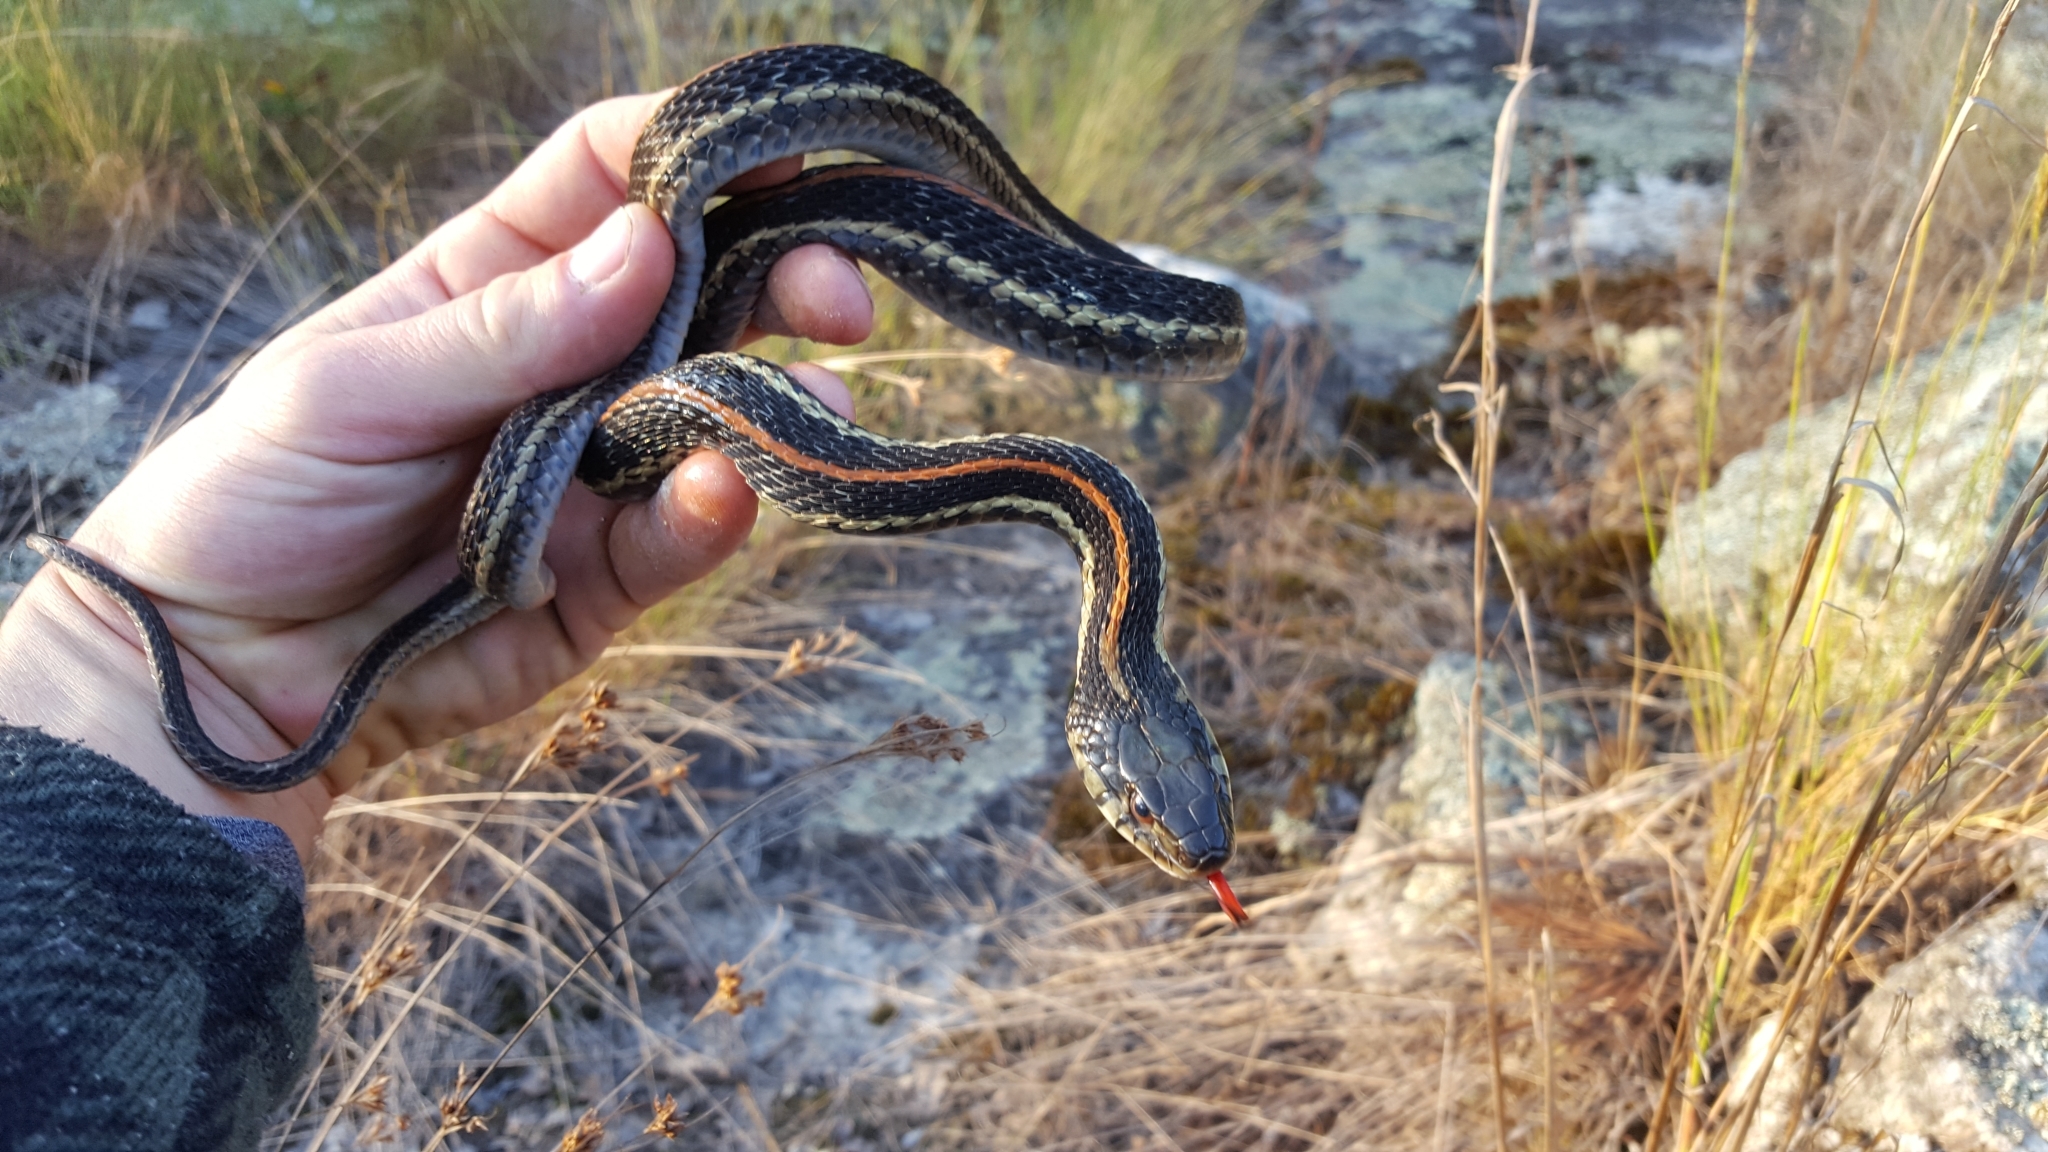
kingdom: Animalia
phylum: Chordata
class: Squamata
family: Colubridae
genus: Thamnophis
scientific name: Thamnophis sirtalis
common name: Common garter snake
